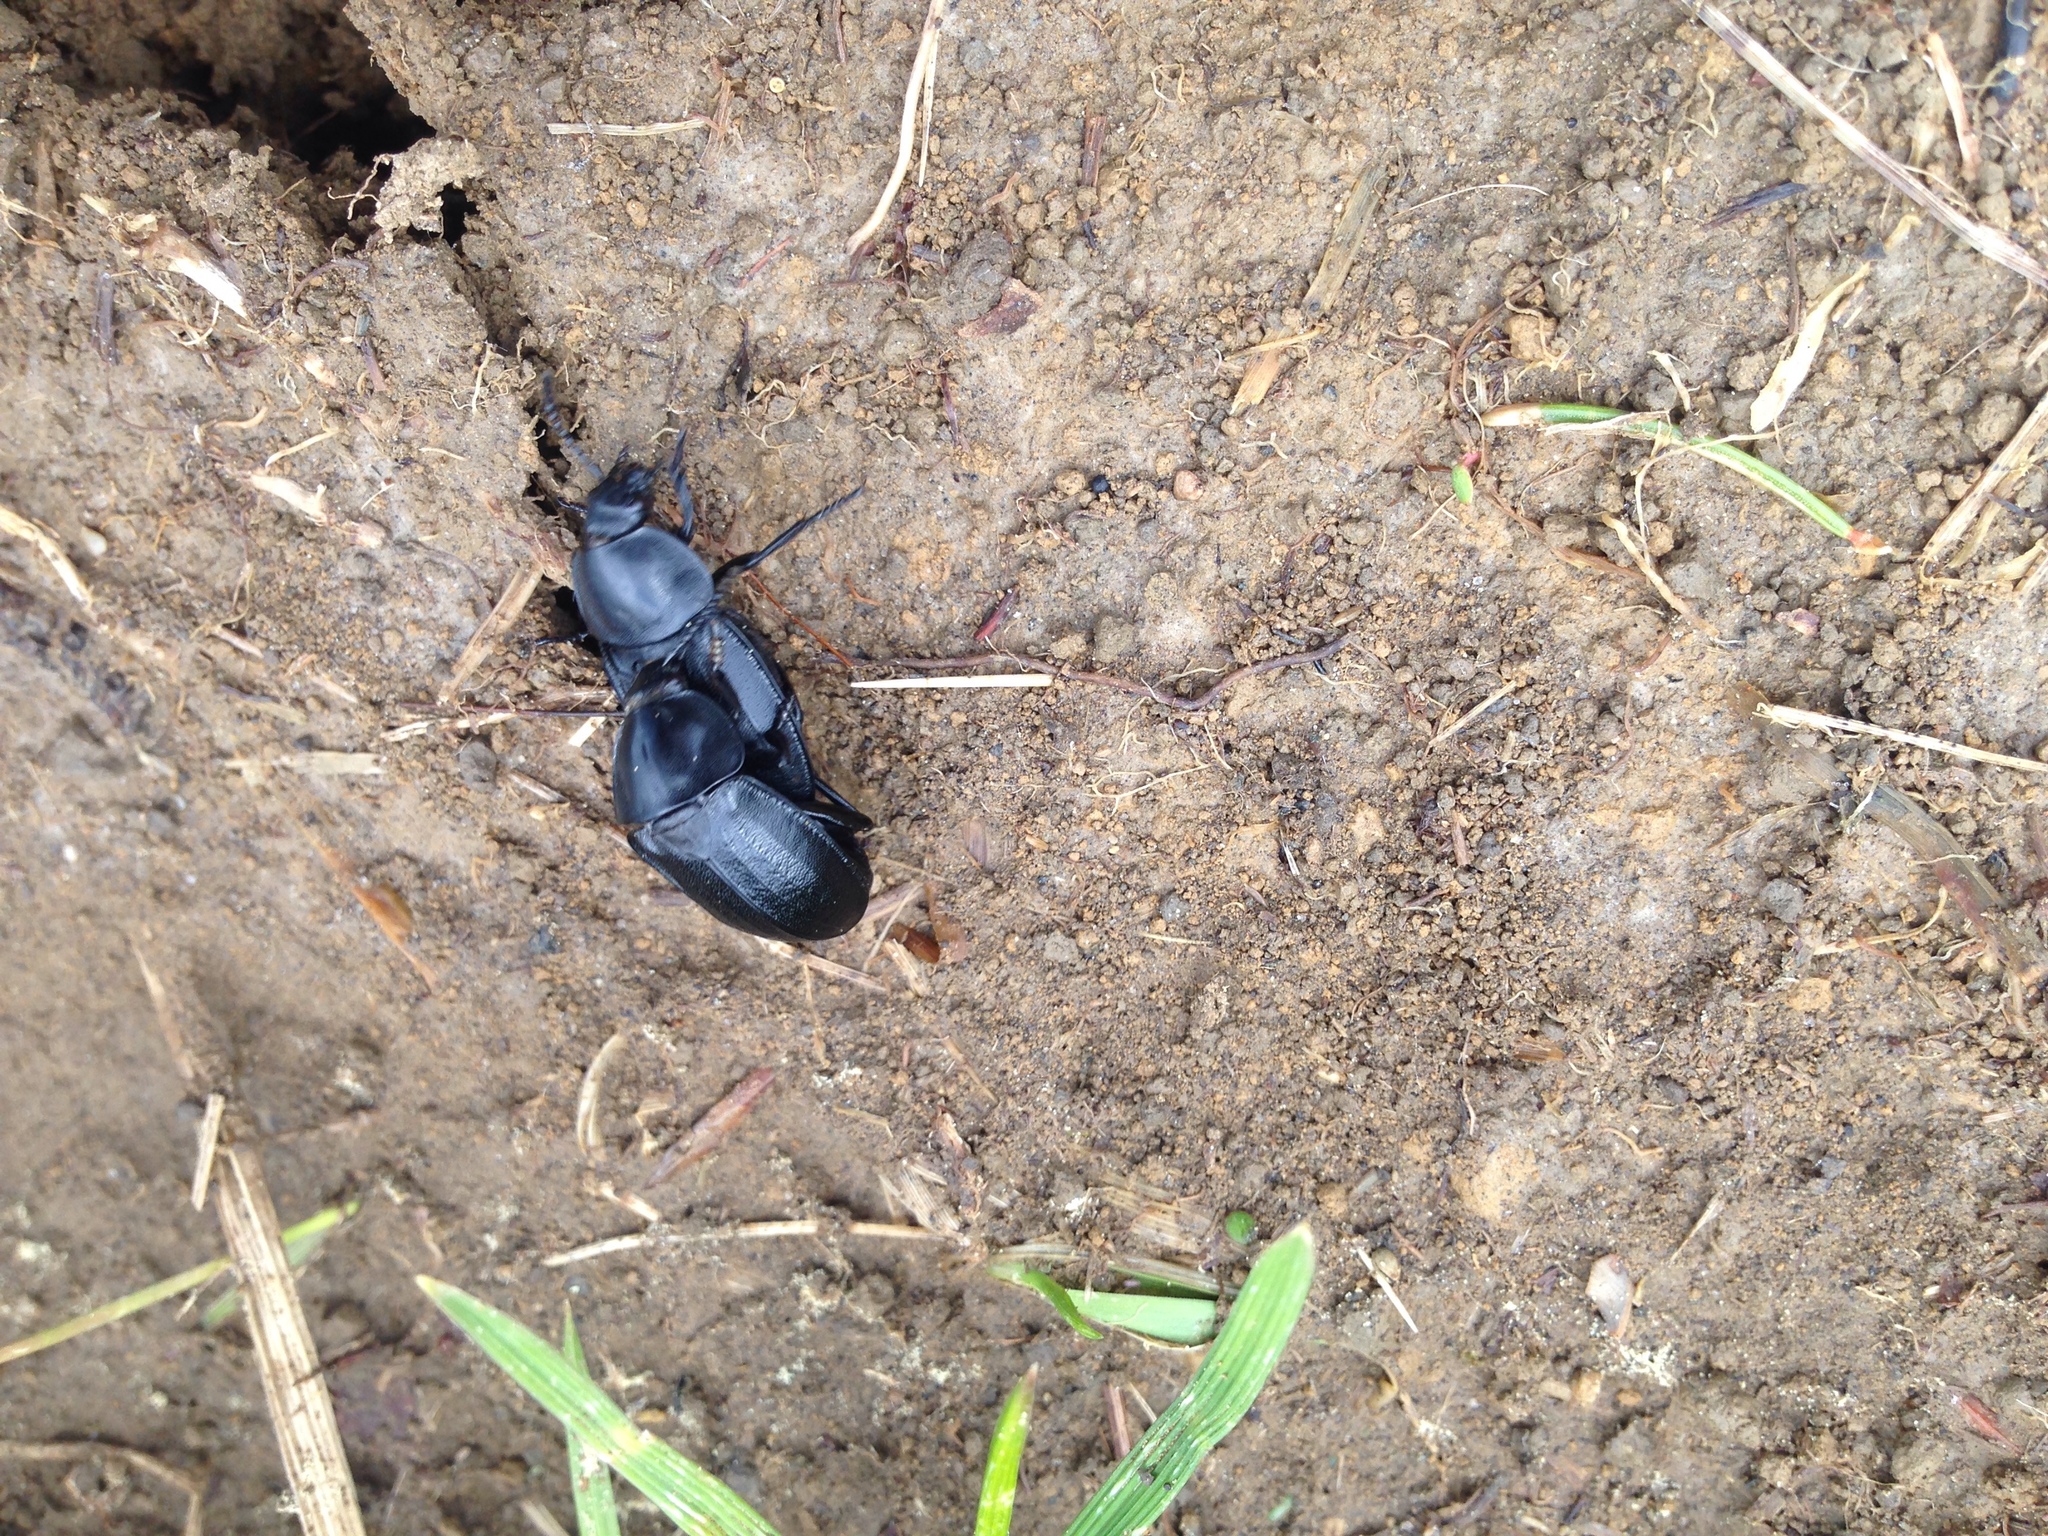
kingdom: Animalia
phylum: Arthropoda
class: Insecta
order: Coleoptera
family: Staphylinidae
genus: Silpha
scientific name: Silpha tyrolensis
